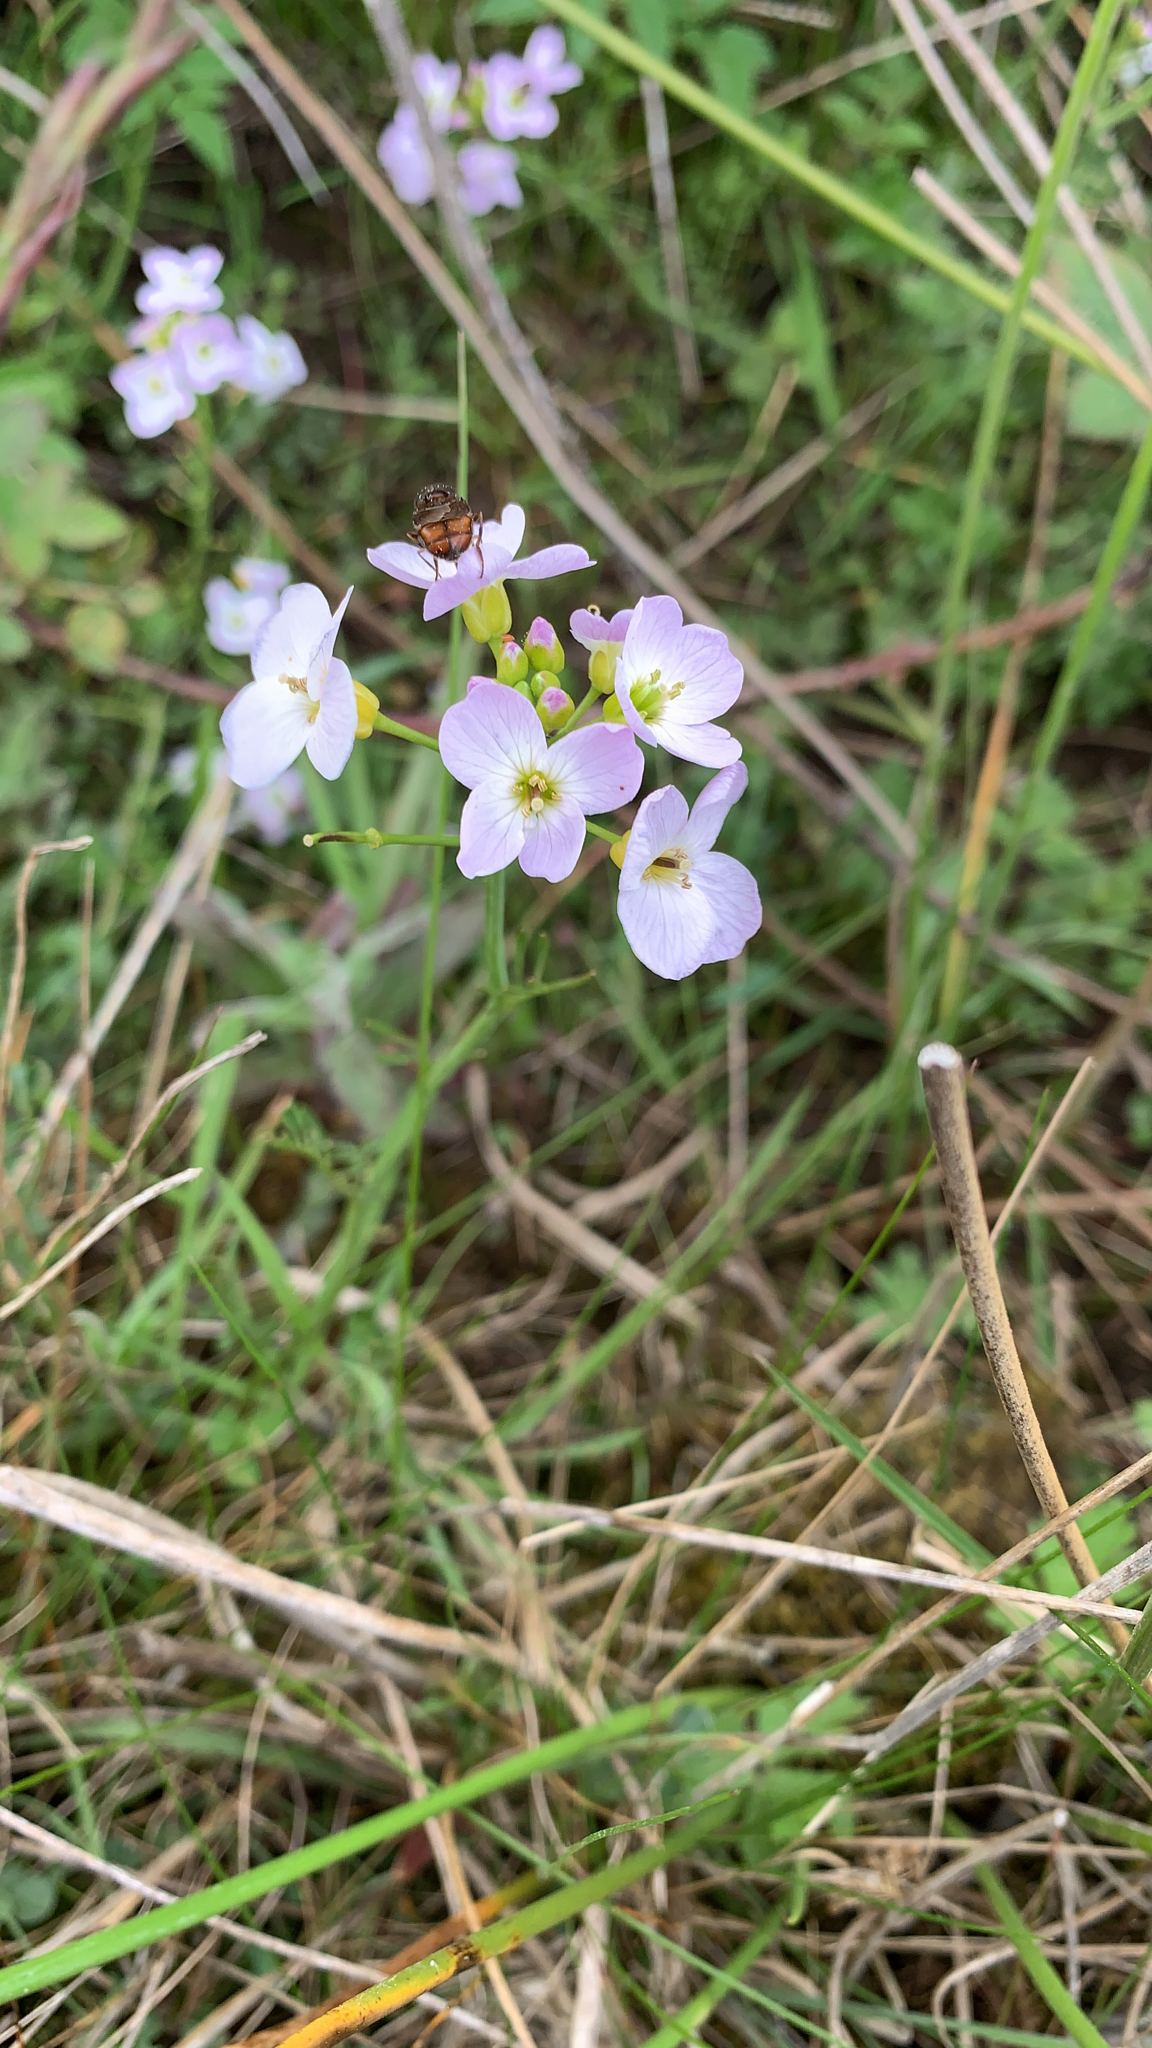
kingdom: Plantae
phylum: Tracheophyta
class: Magnoliopsida
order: Brassicales
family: Brassicaceae
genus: Cardamine
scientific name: Cardamine pratensis
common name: Cuckoo flower
